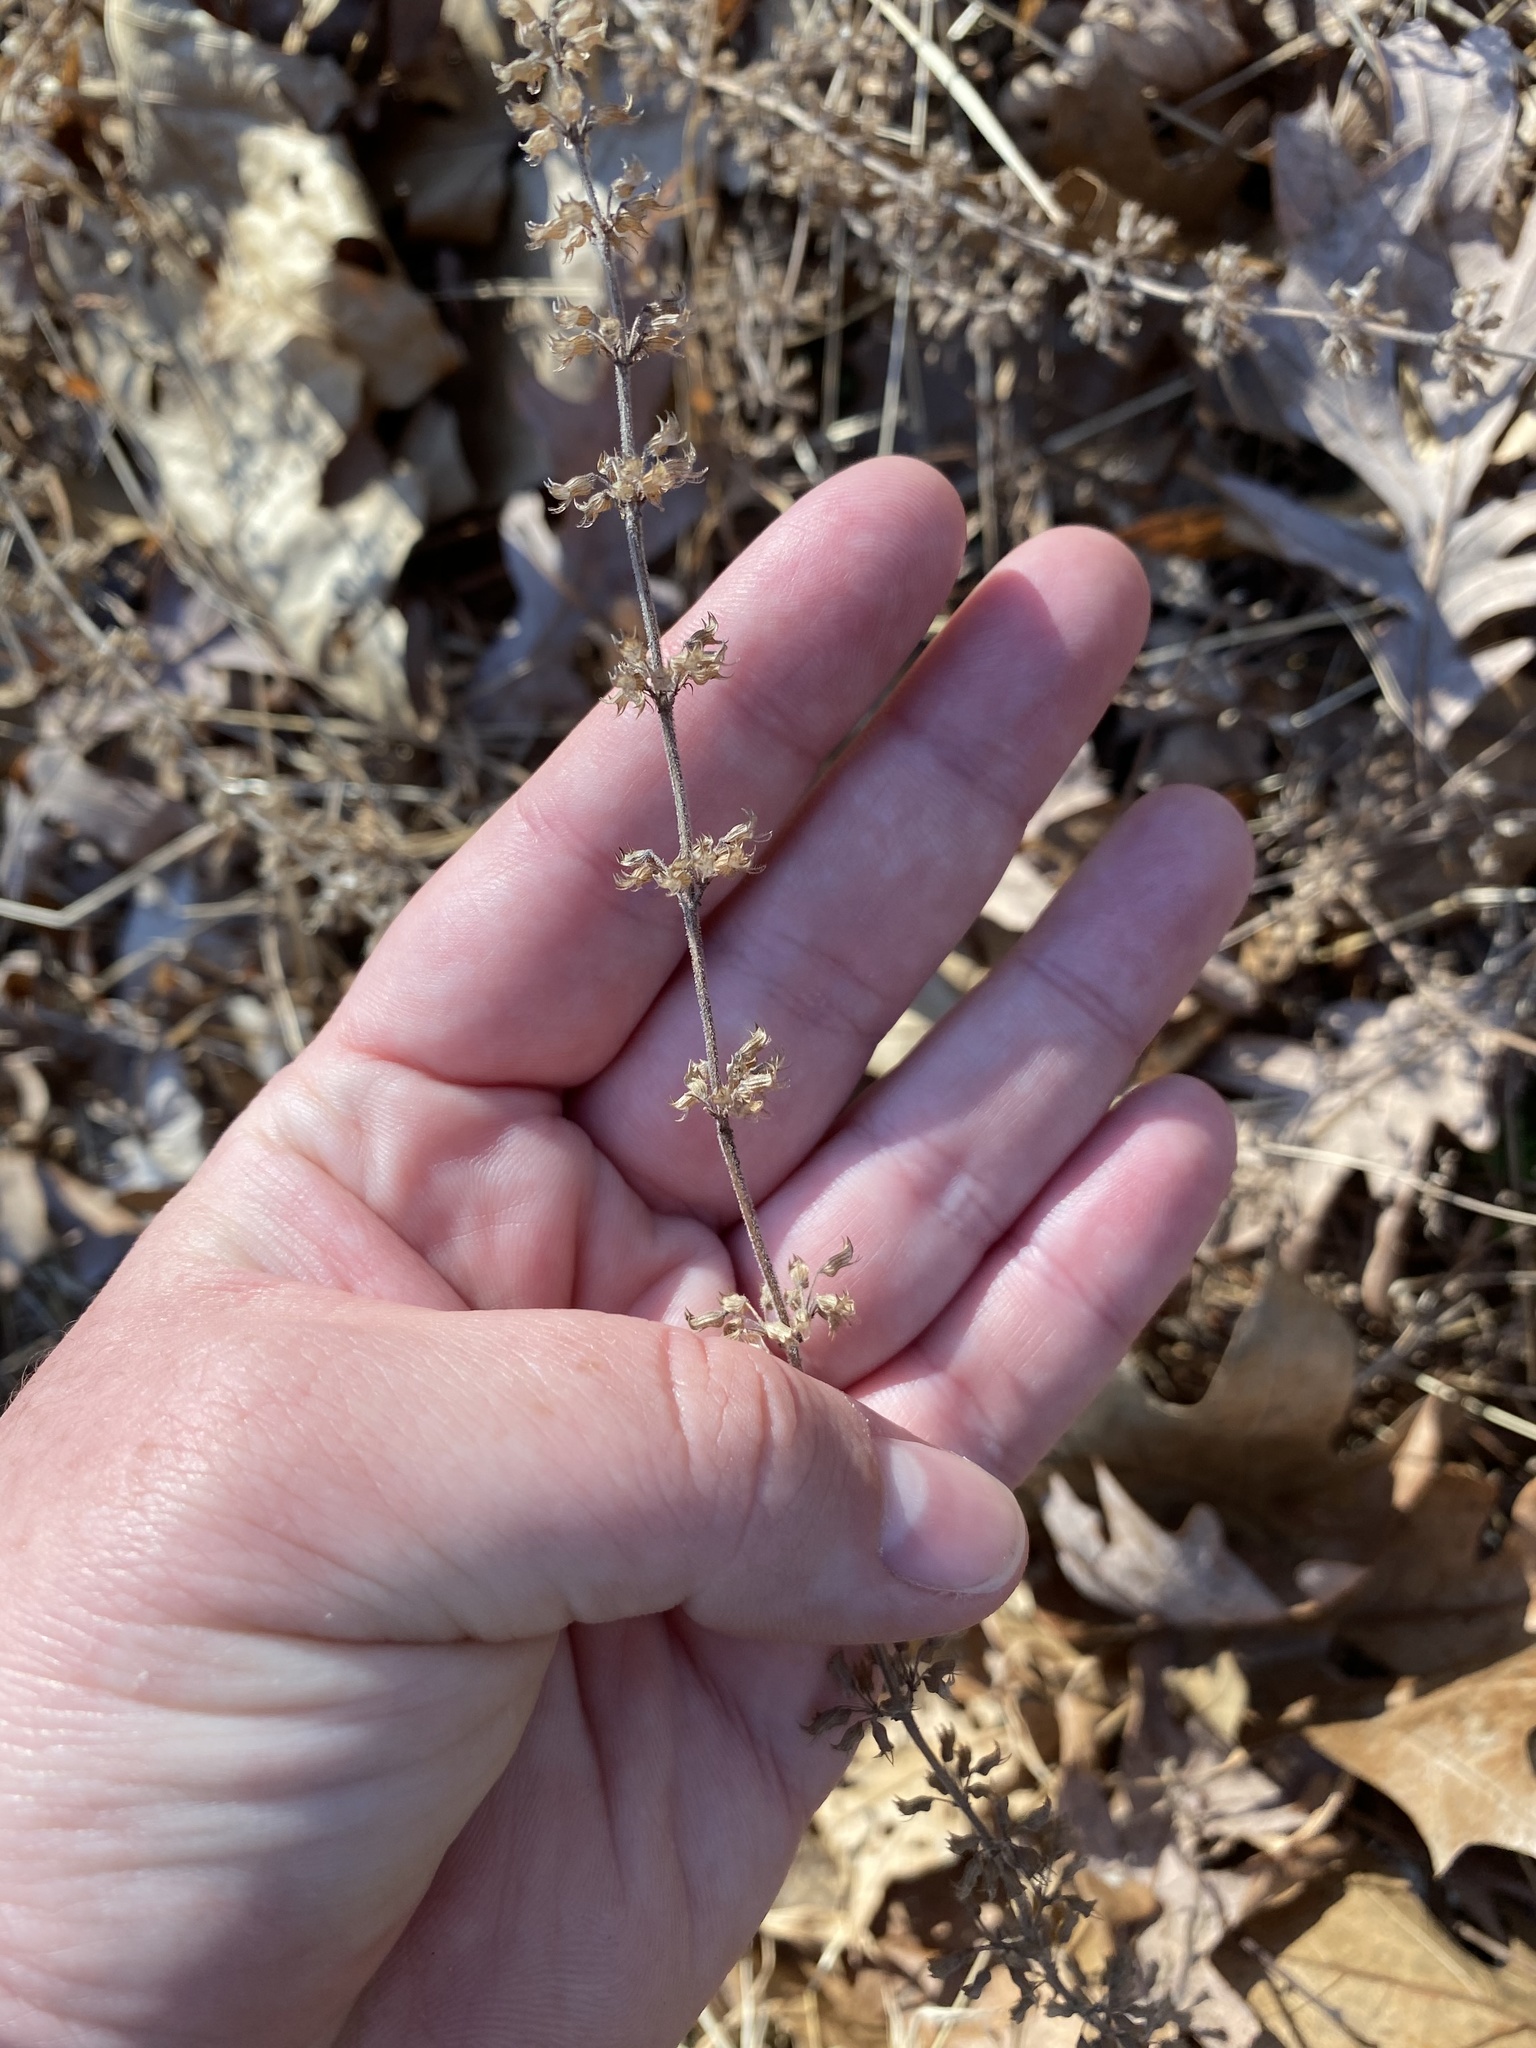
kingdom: Plantae
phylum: Tracheophyta
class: Magnoliopsida
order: Lamiales
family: Lamiaceae
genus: Hedeoma
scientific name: Hedeoma pulegioides
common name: American false pennyroyal
